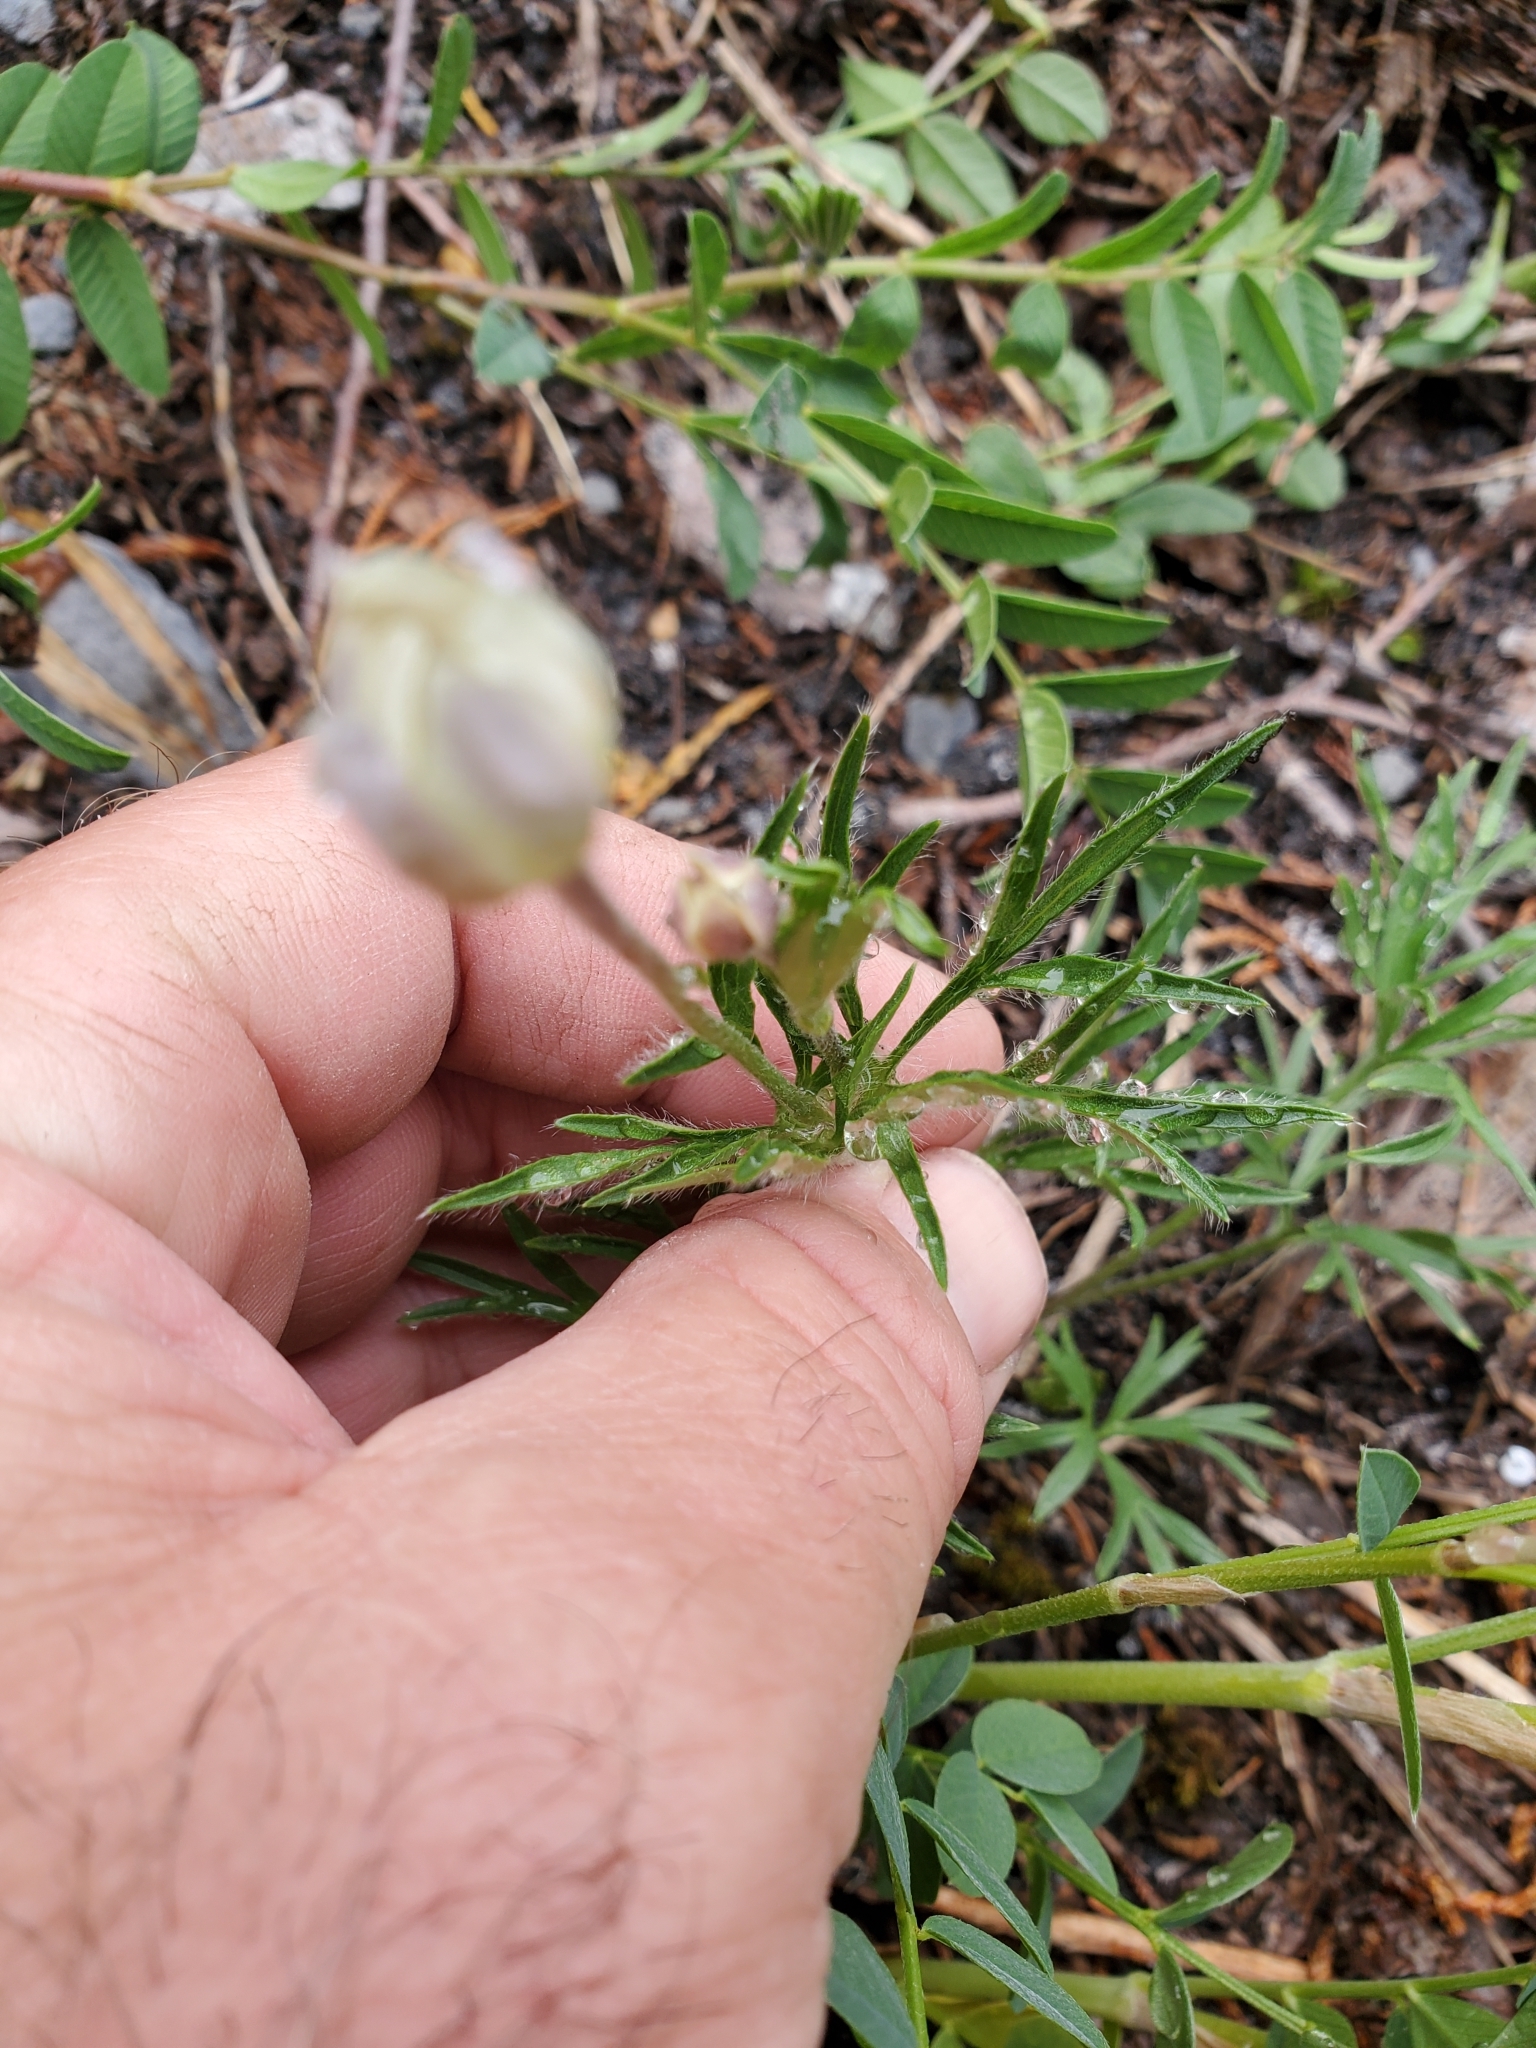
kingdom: Plantae
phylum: Tracheophyta
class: Magnoliopsida
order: Ranunculales
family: Ranunculaceae
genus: Anemone
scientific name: Anemone multifida
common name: Bird's-foot anemone
